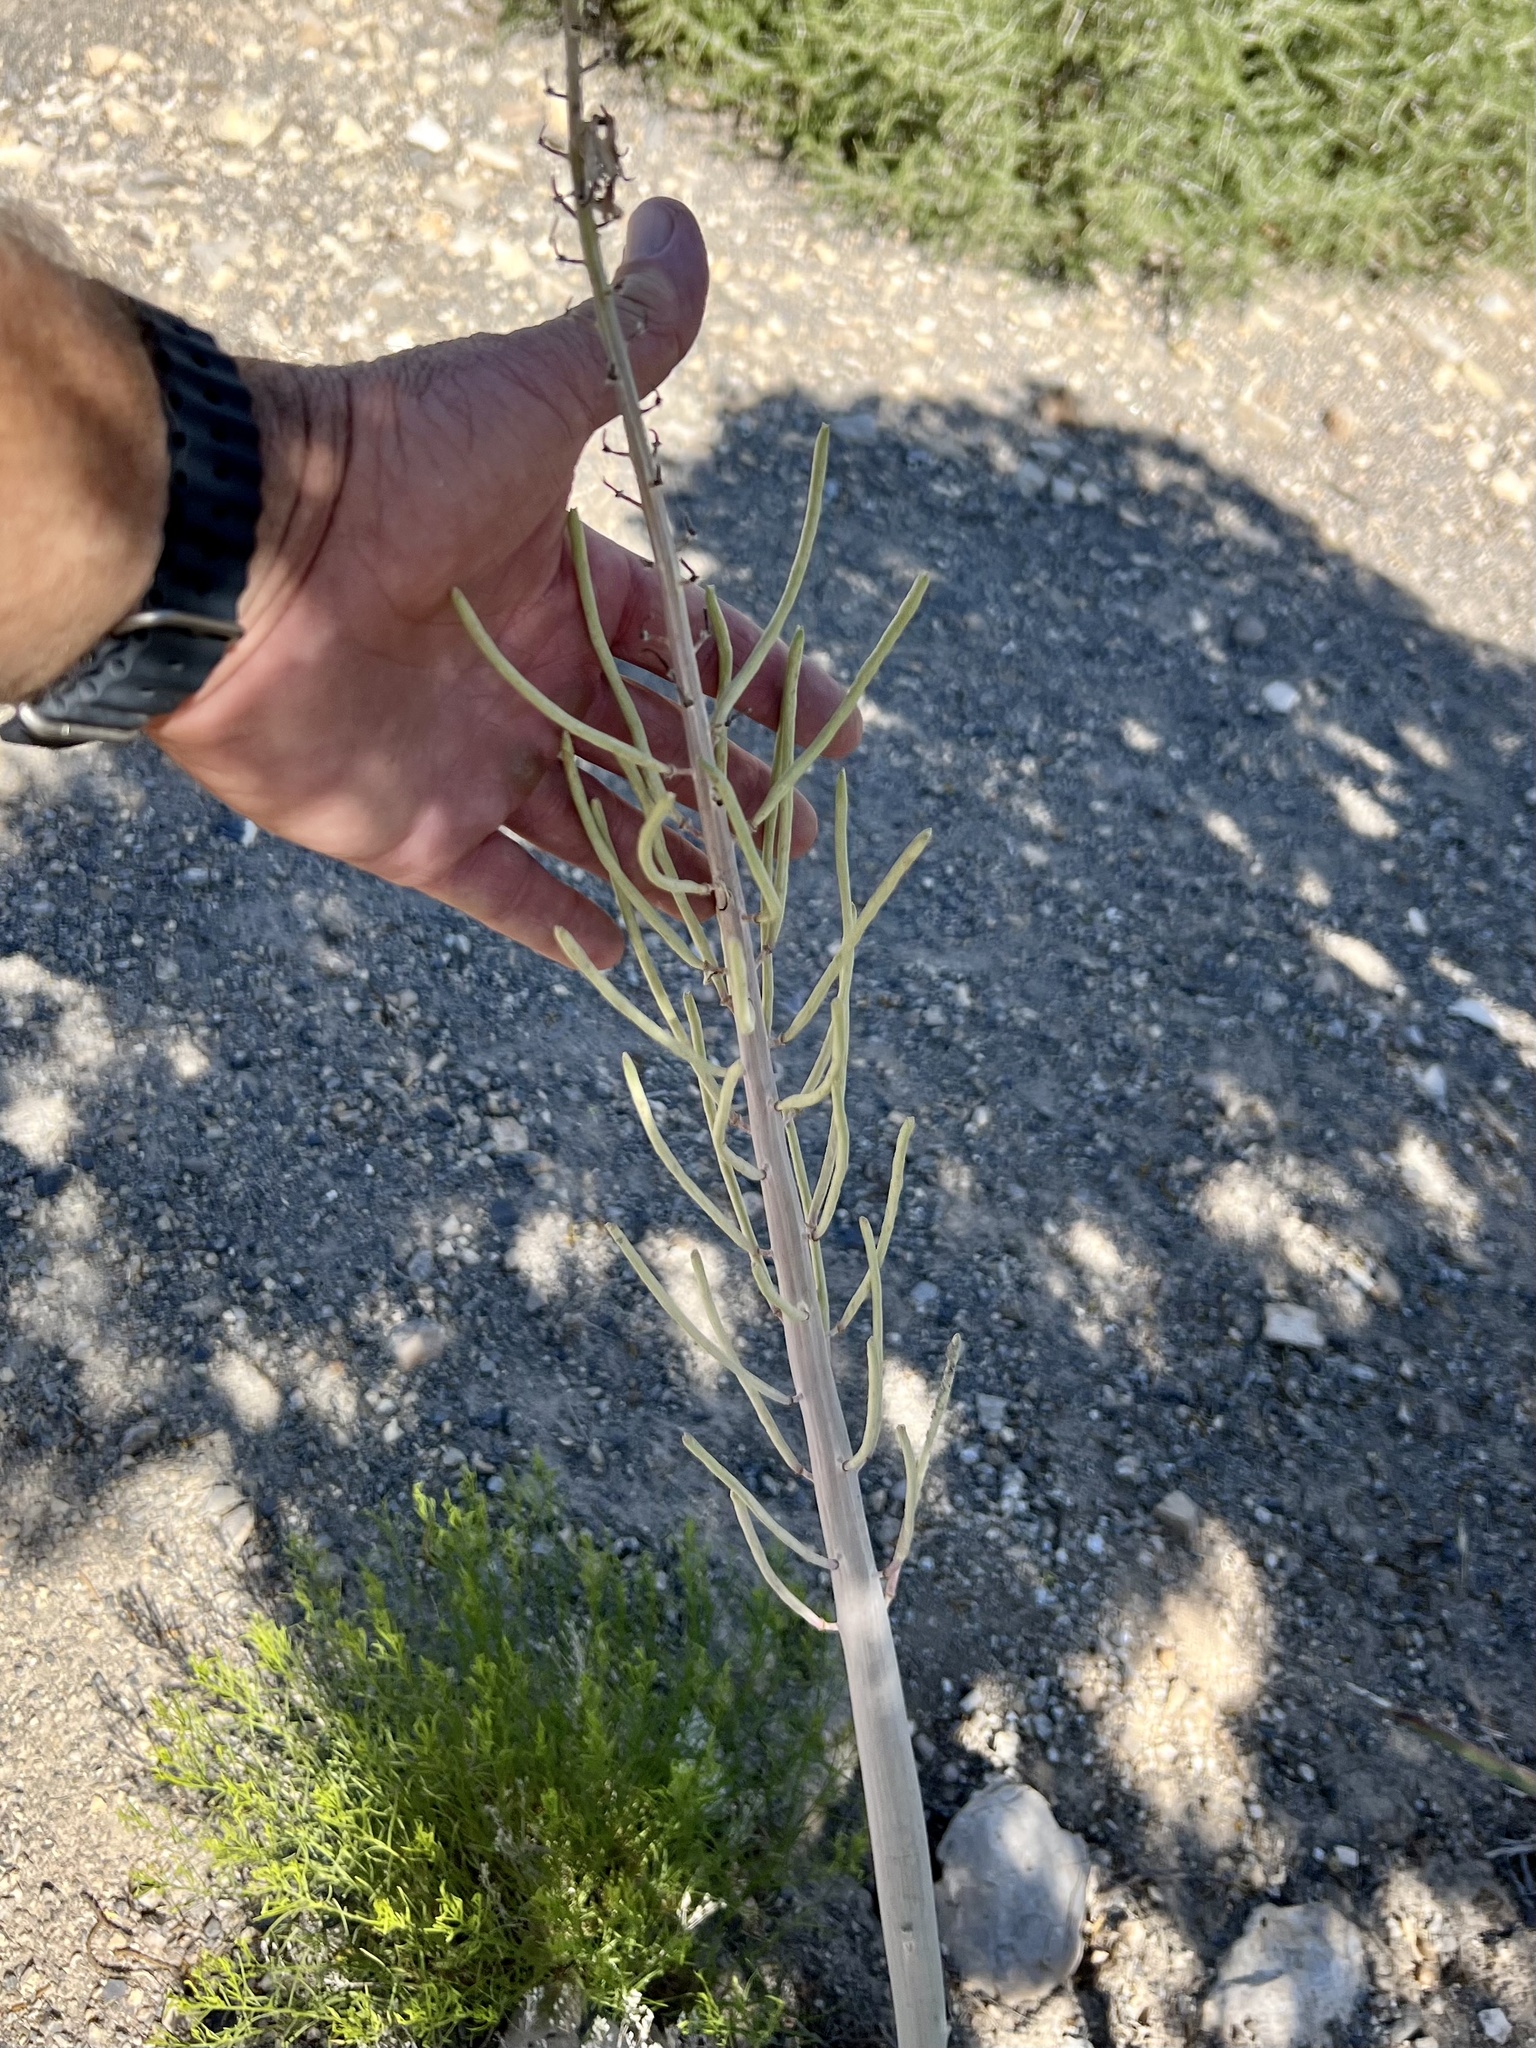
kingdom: Plantae
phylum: Tracheophyta
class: Magnoliopsida
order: Brassicales
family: Brassicaceae
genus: Streptanthus
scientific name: Streptanthus crassicaulis
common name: Thick-stem wild cabbage
